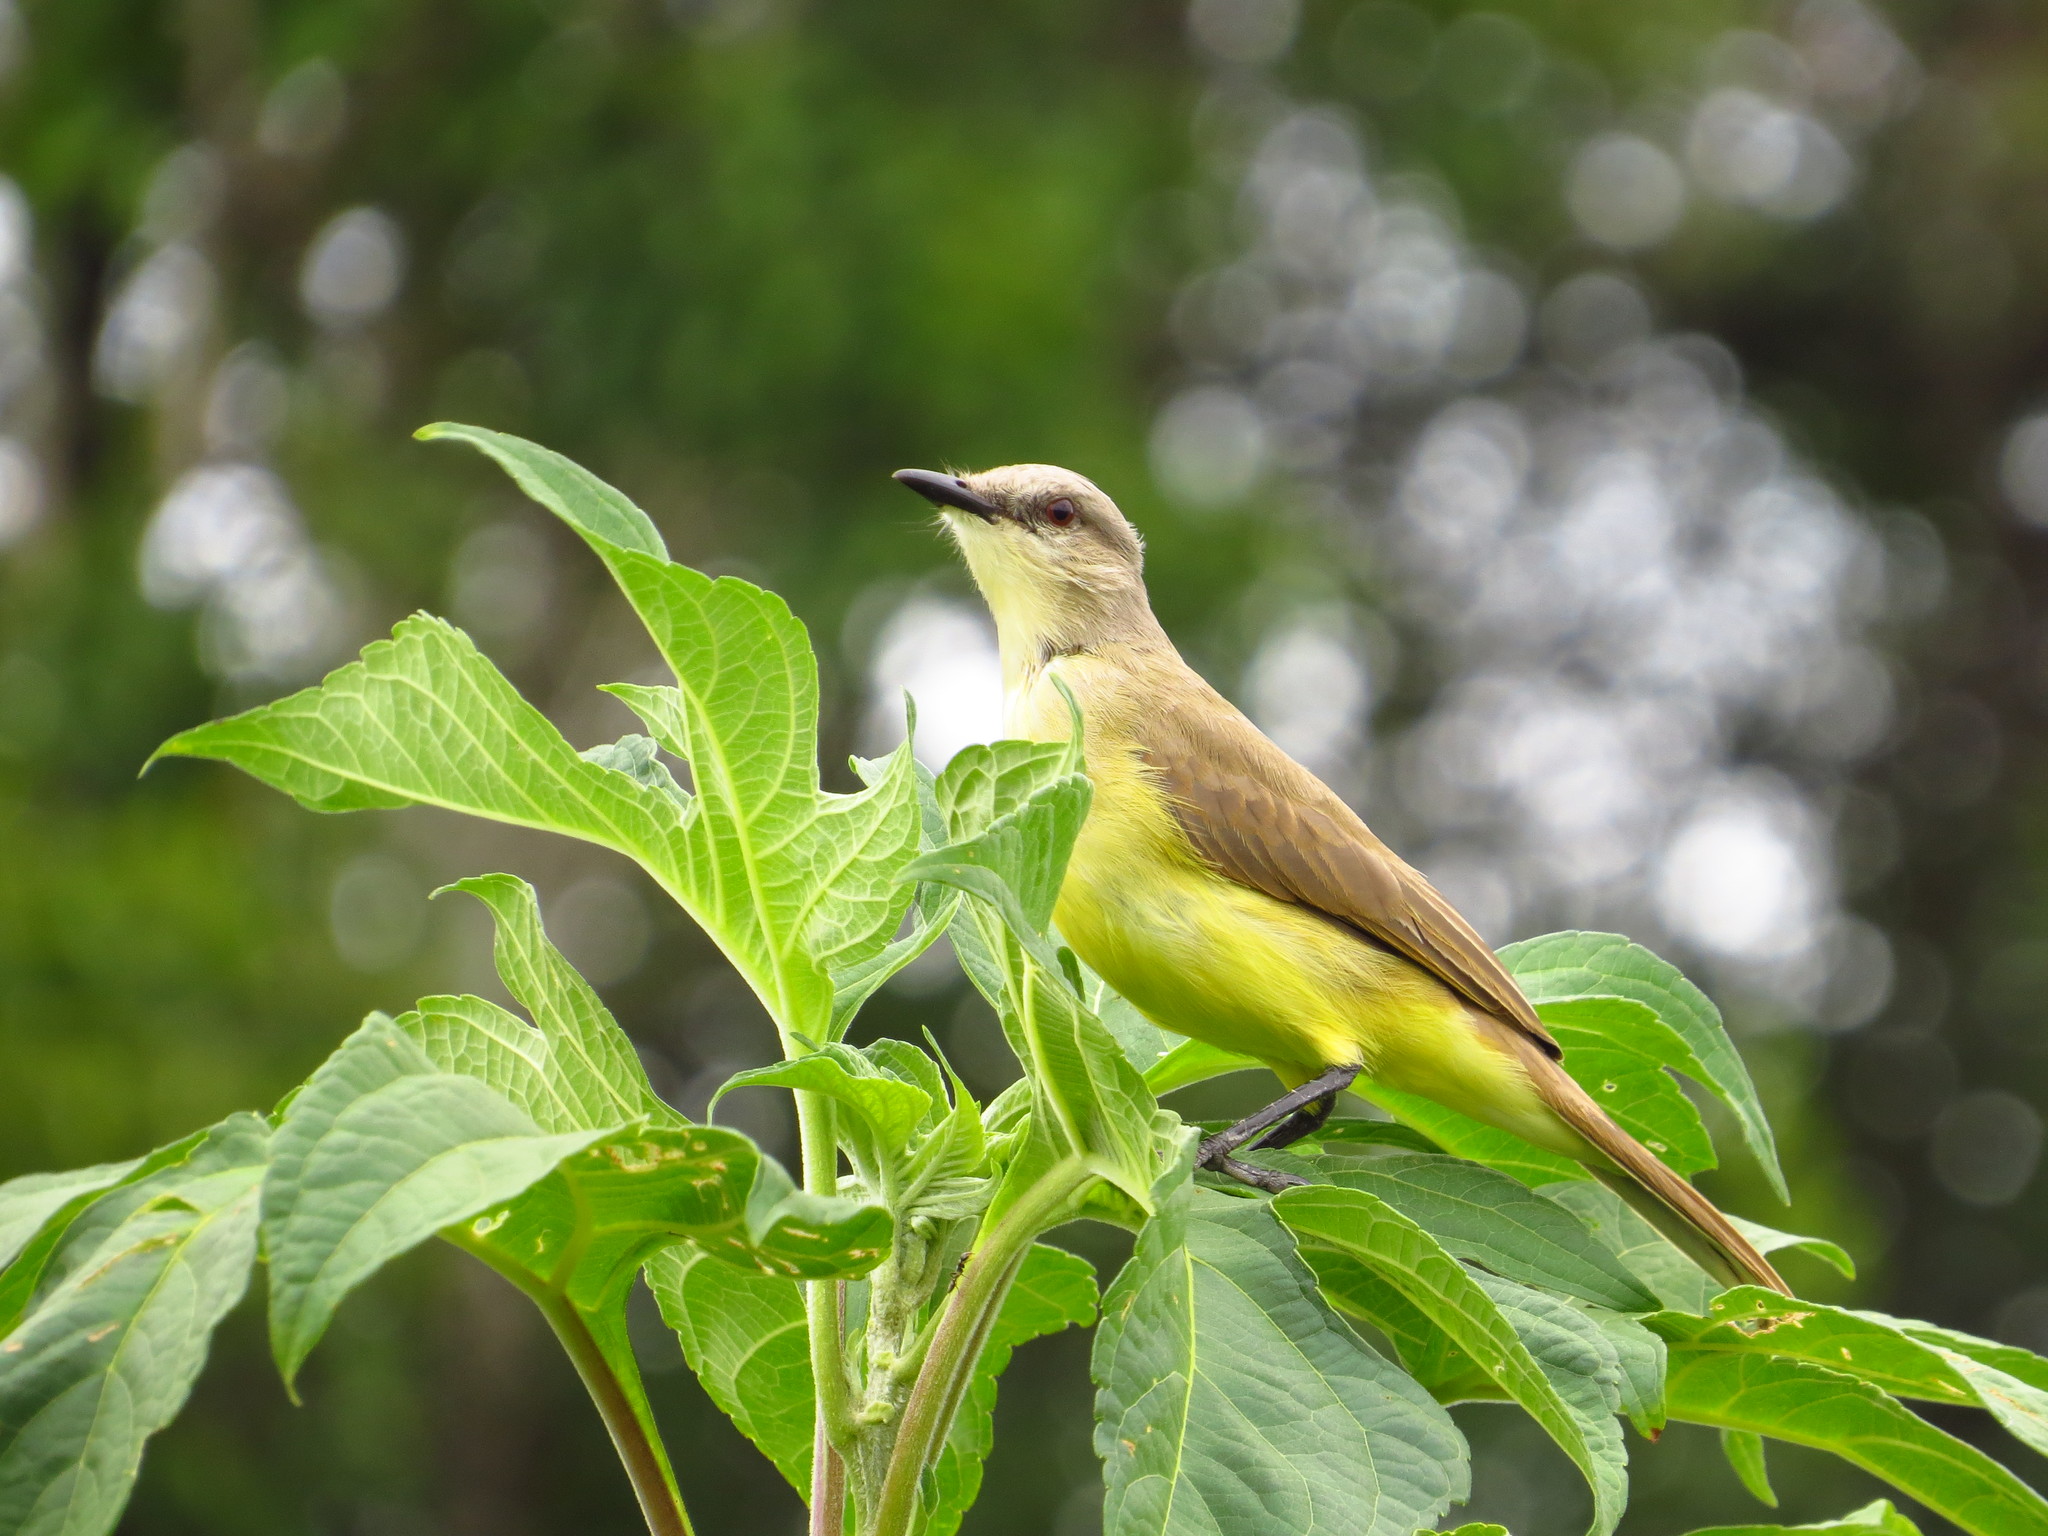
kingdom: Animalia
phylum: Chordata
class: Aves
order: Passeriformes
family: Tyrannidae
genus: Machetornis
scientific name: Machetornis rixosa
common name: Cattle tyrant
